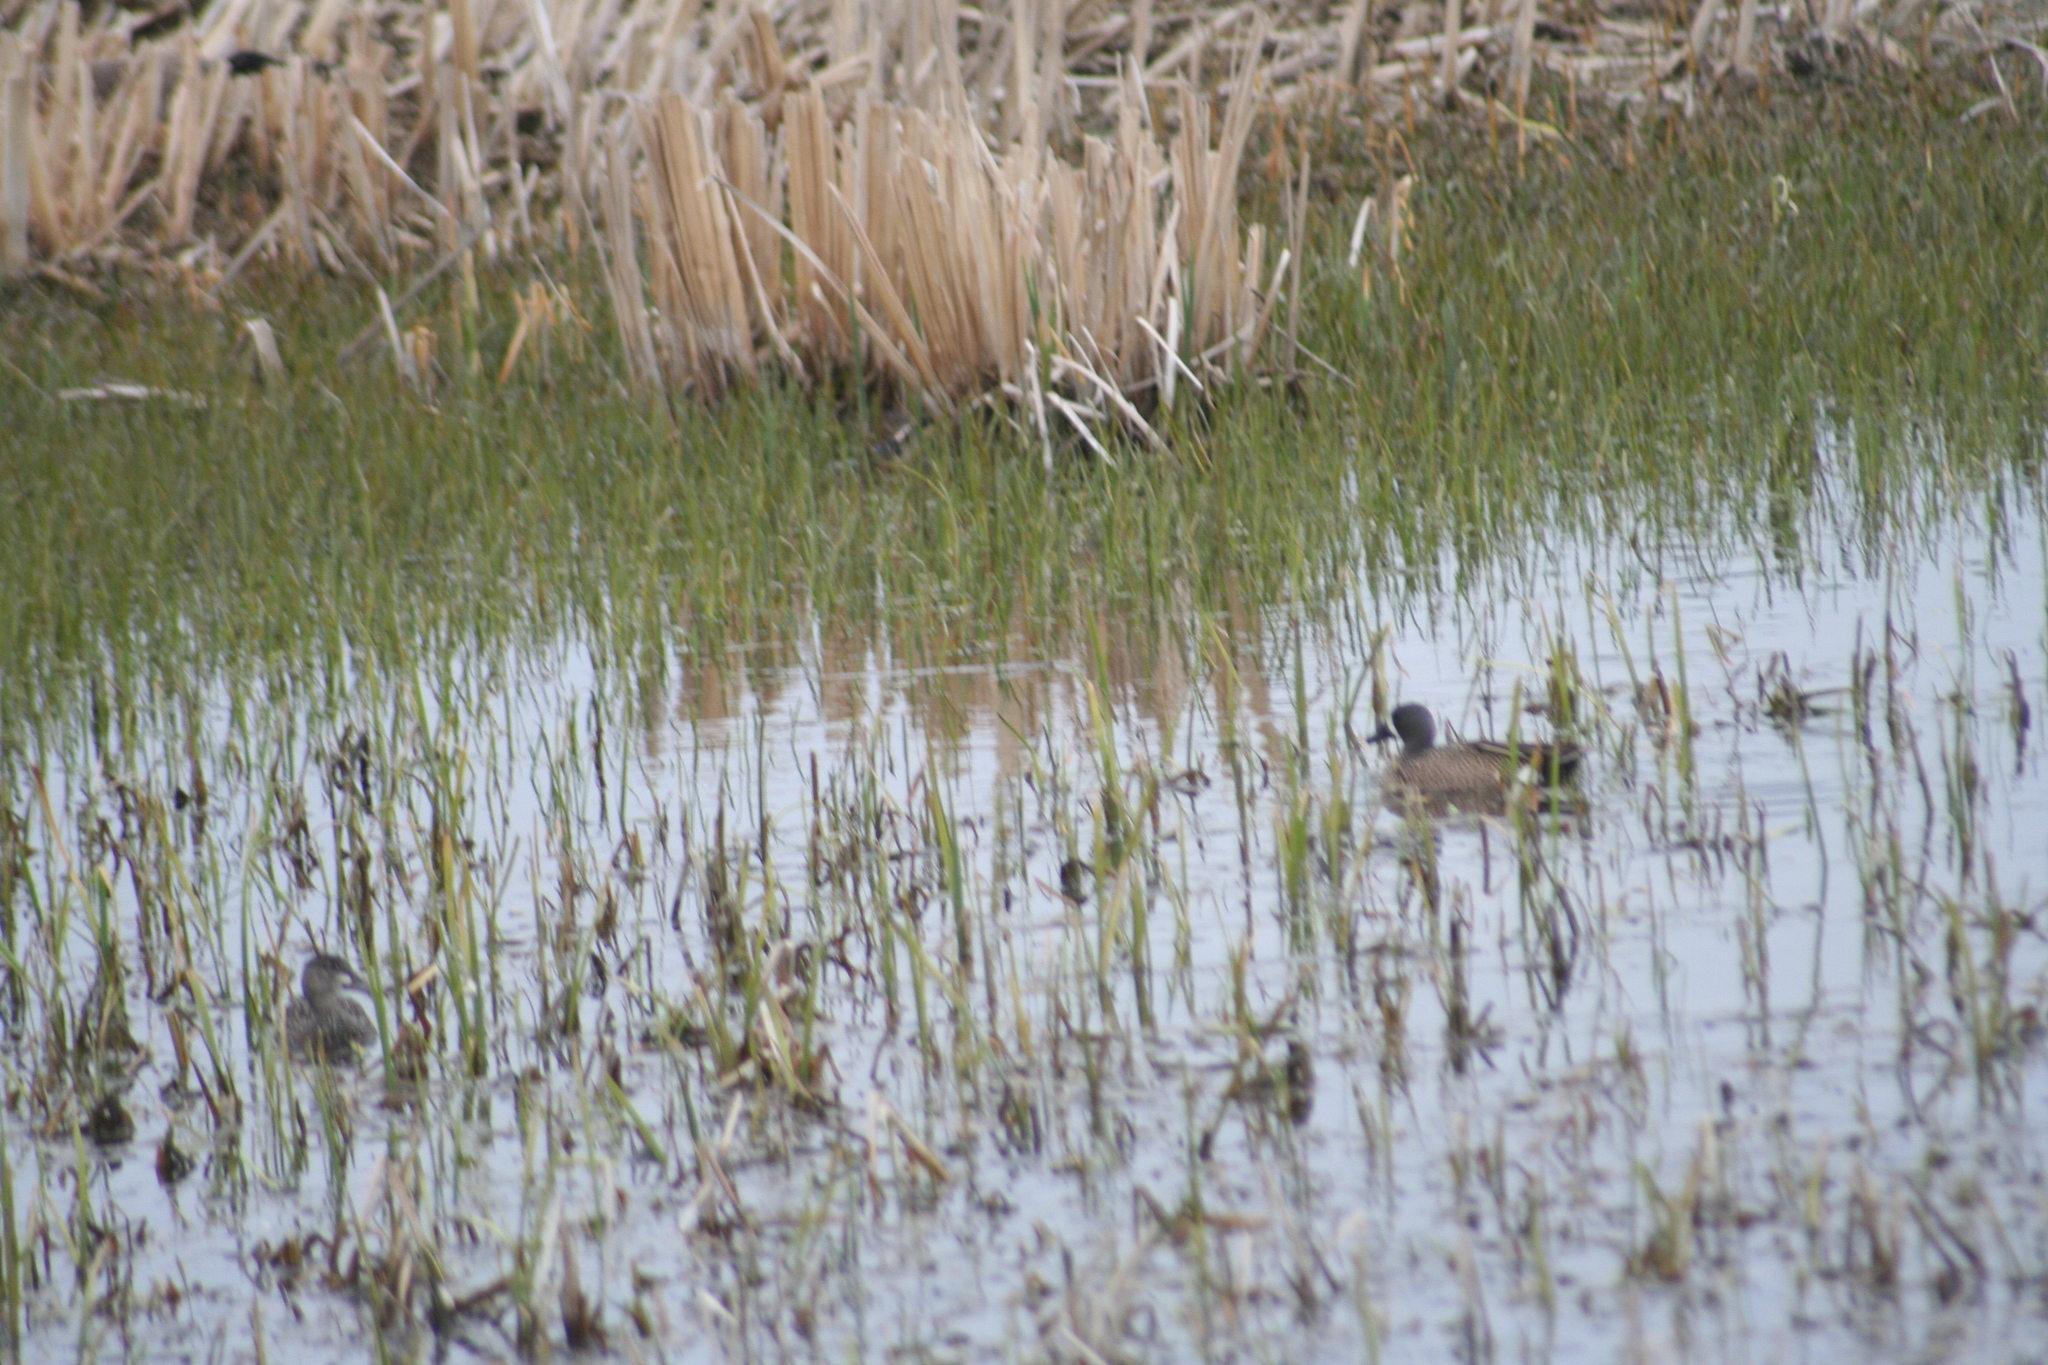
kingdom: Animalia
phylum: Chordata
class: Aves
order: Anseriformes
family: Anatidae
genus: Spatula
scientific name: Spatula discors
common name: Blue-winged teal
